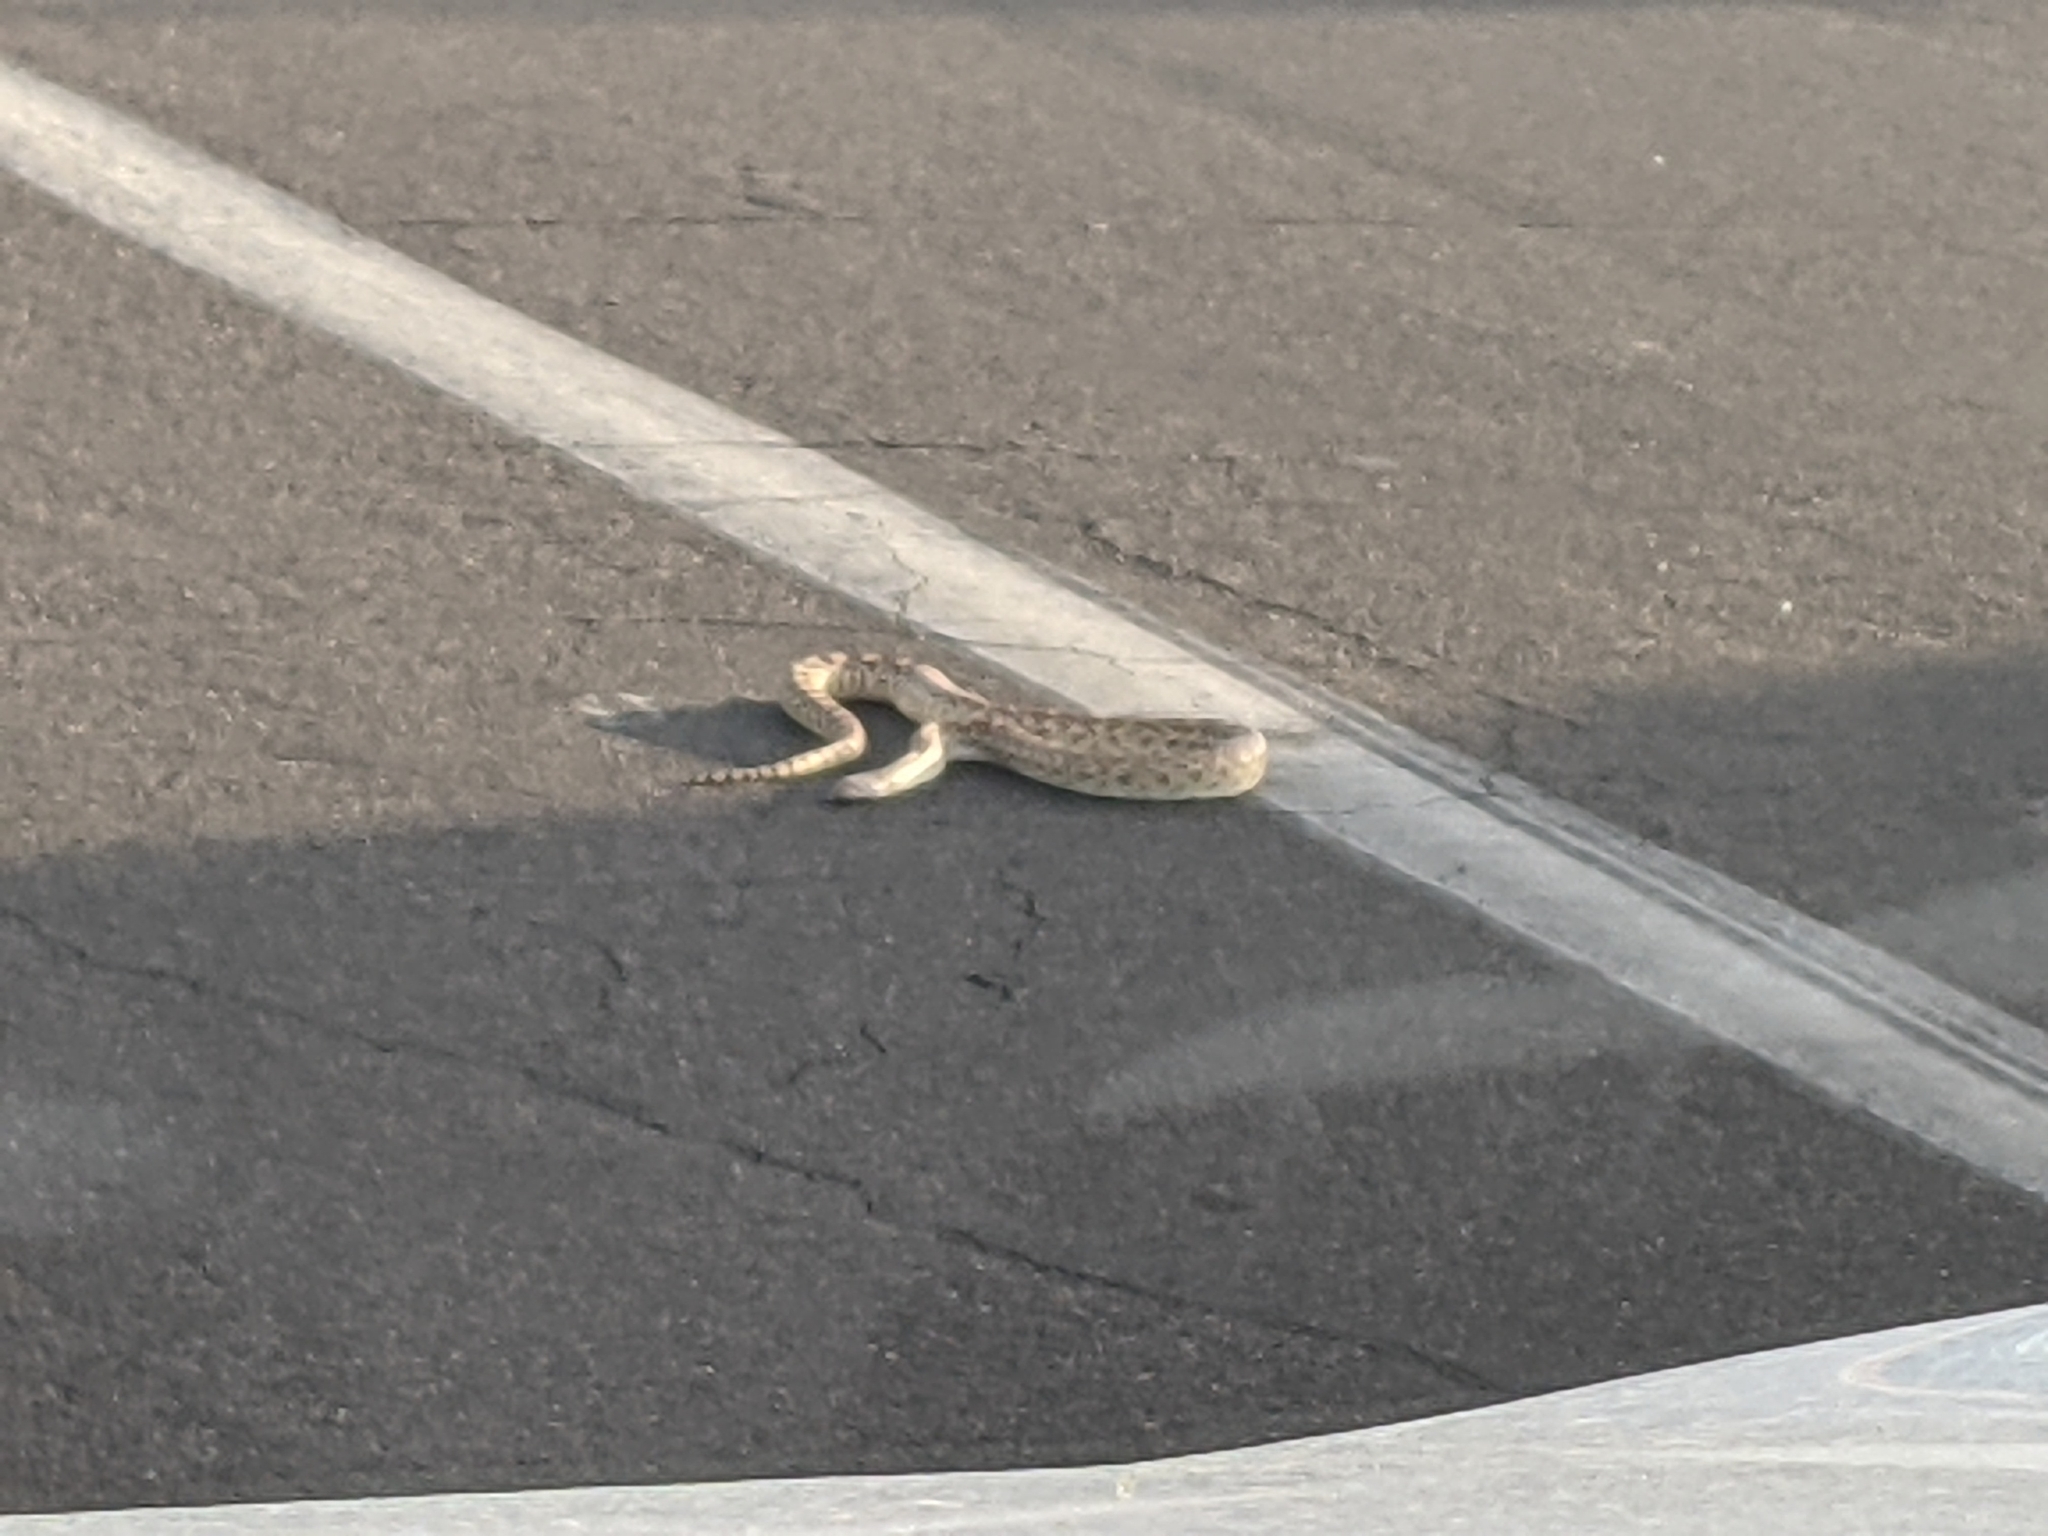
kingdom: Animalia
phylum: Chordata
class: Squamata
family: Colubridae
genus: Pituophis
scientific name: Pituophis catenifer
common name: Gopher snake
